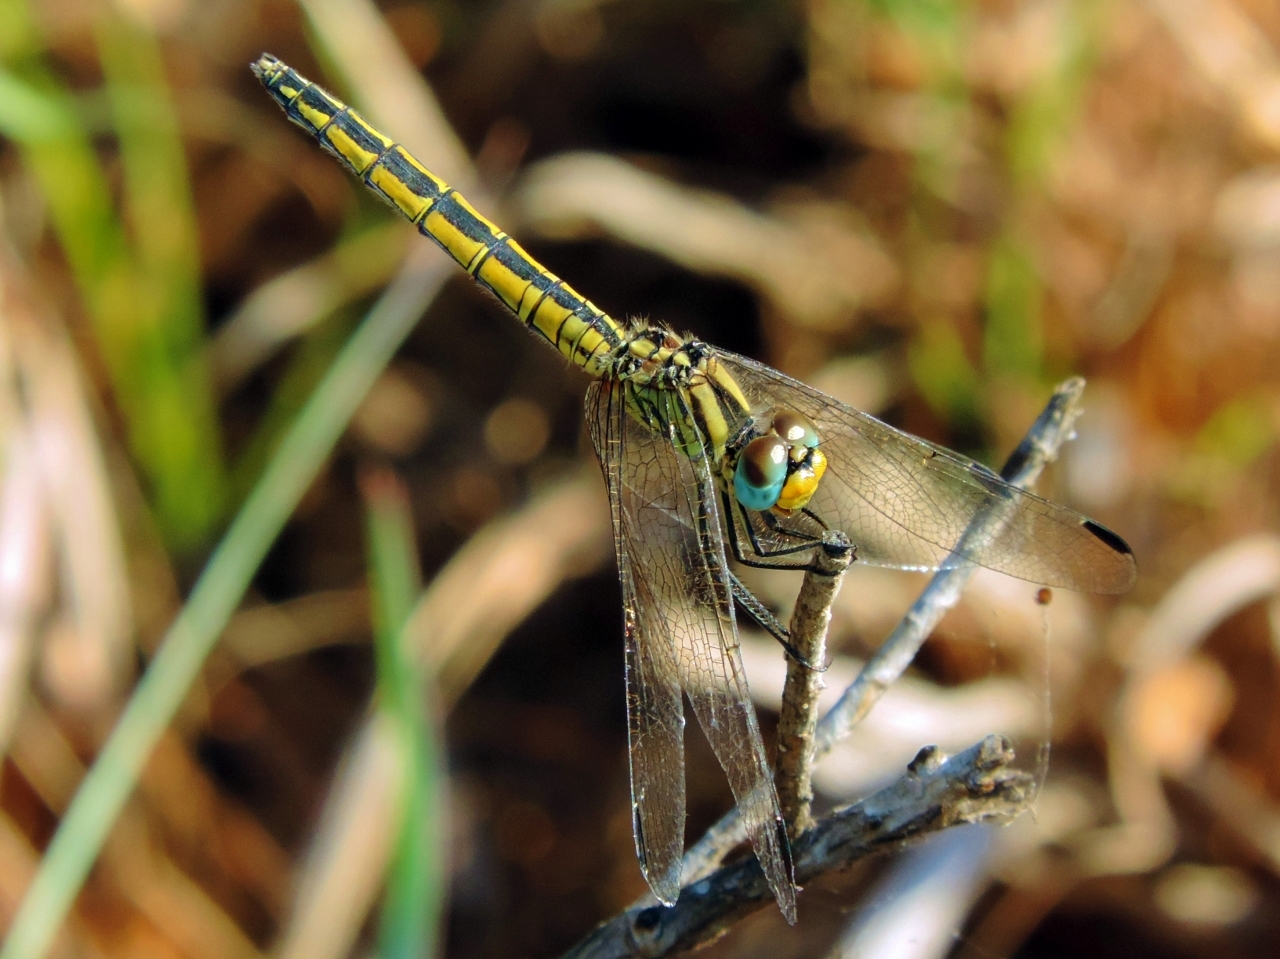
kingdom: Animalia
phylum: Arthropoda
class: Insecta
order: Odonata
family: Libellulidae
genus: Trithemis
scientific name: Trithemis dorsalis
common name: Highland dropwing
